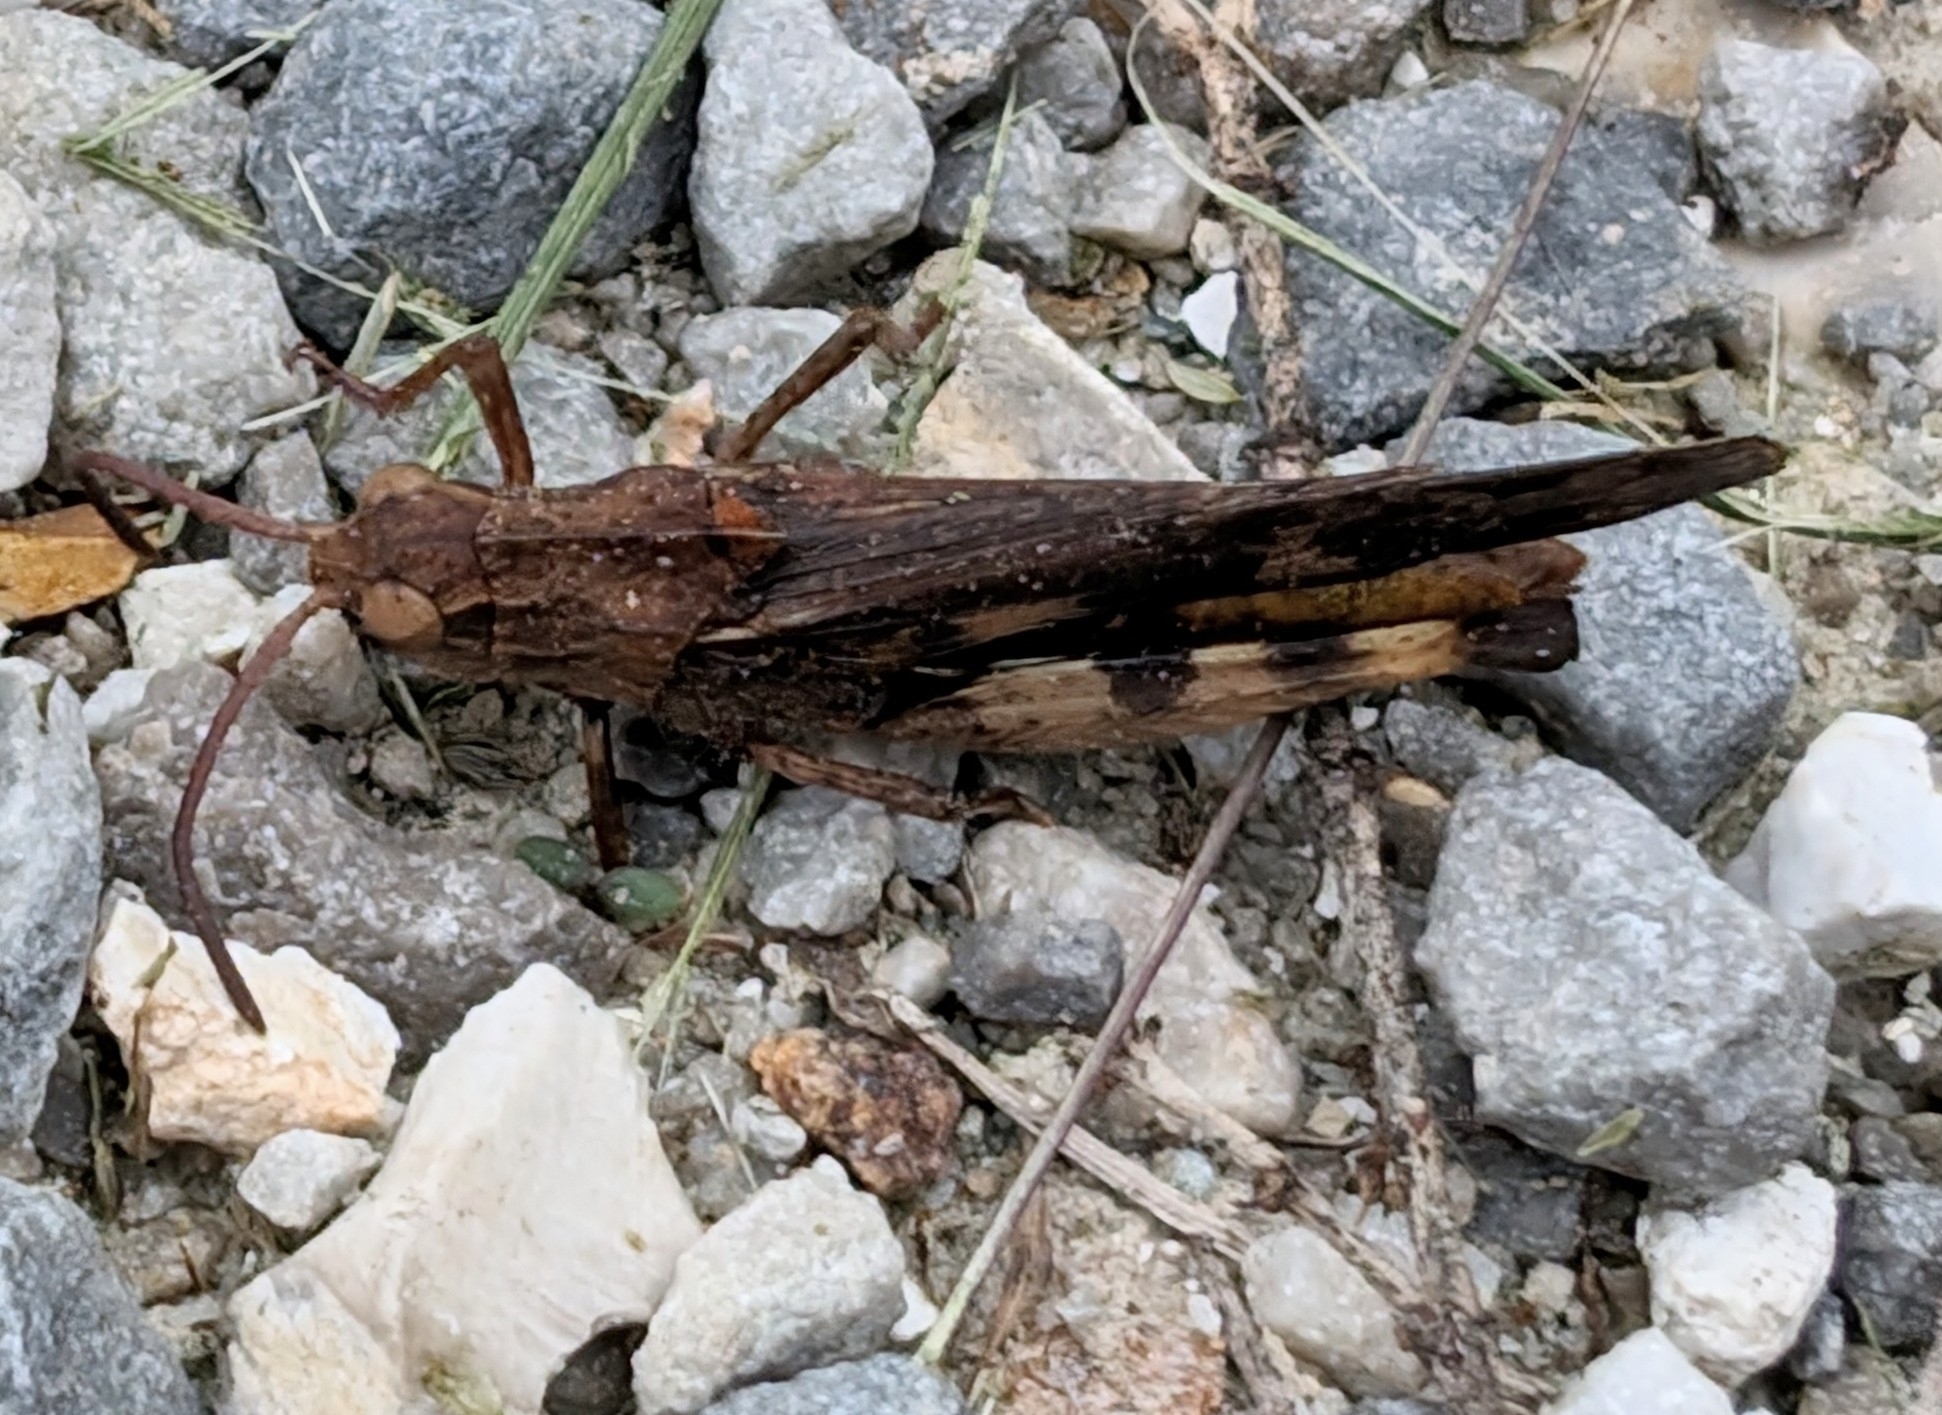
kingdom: Animalia
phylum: Arthropoda
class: Insecta
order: Orthoptera
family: Acrididae
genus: Chortophaga
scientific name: Chortophaga viridifasciata
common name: Green-striped grasshopper
